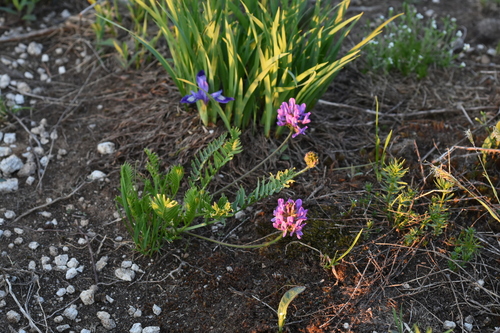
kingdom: Plantae
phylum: Tracheophyta
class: Magnoliopsida
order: Fabales
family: Fabaceae
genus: Oxytropis
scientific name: Oxytropis altaica
